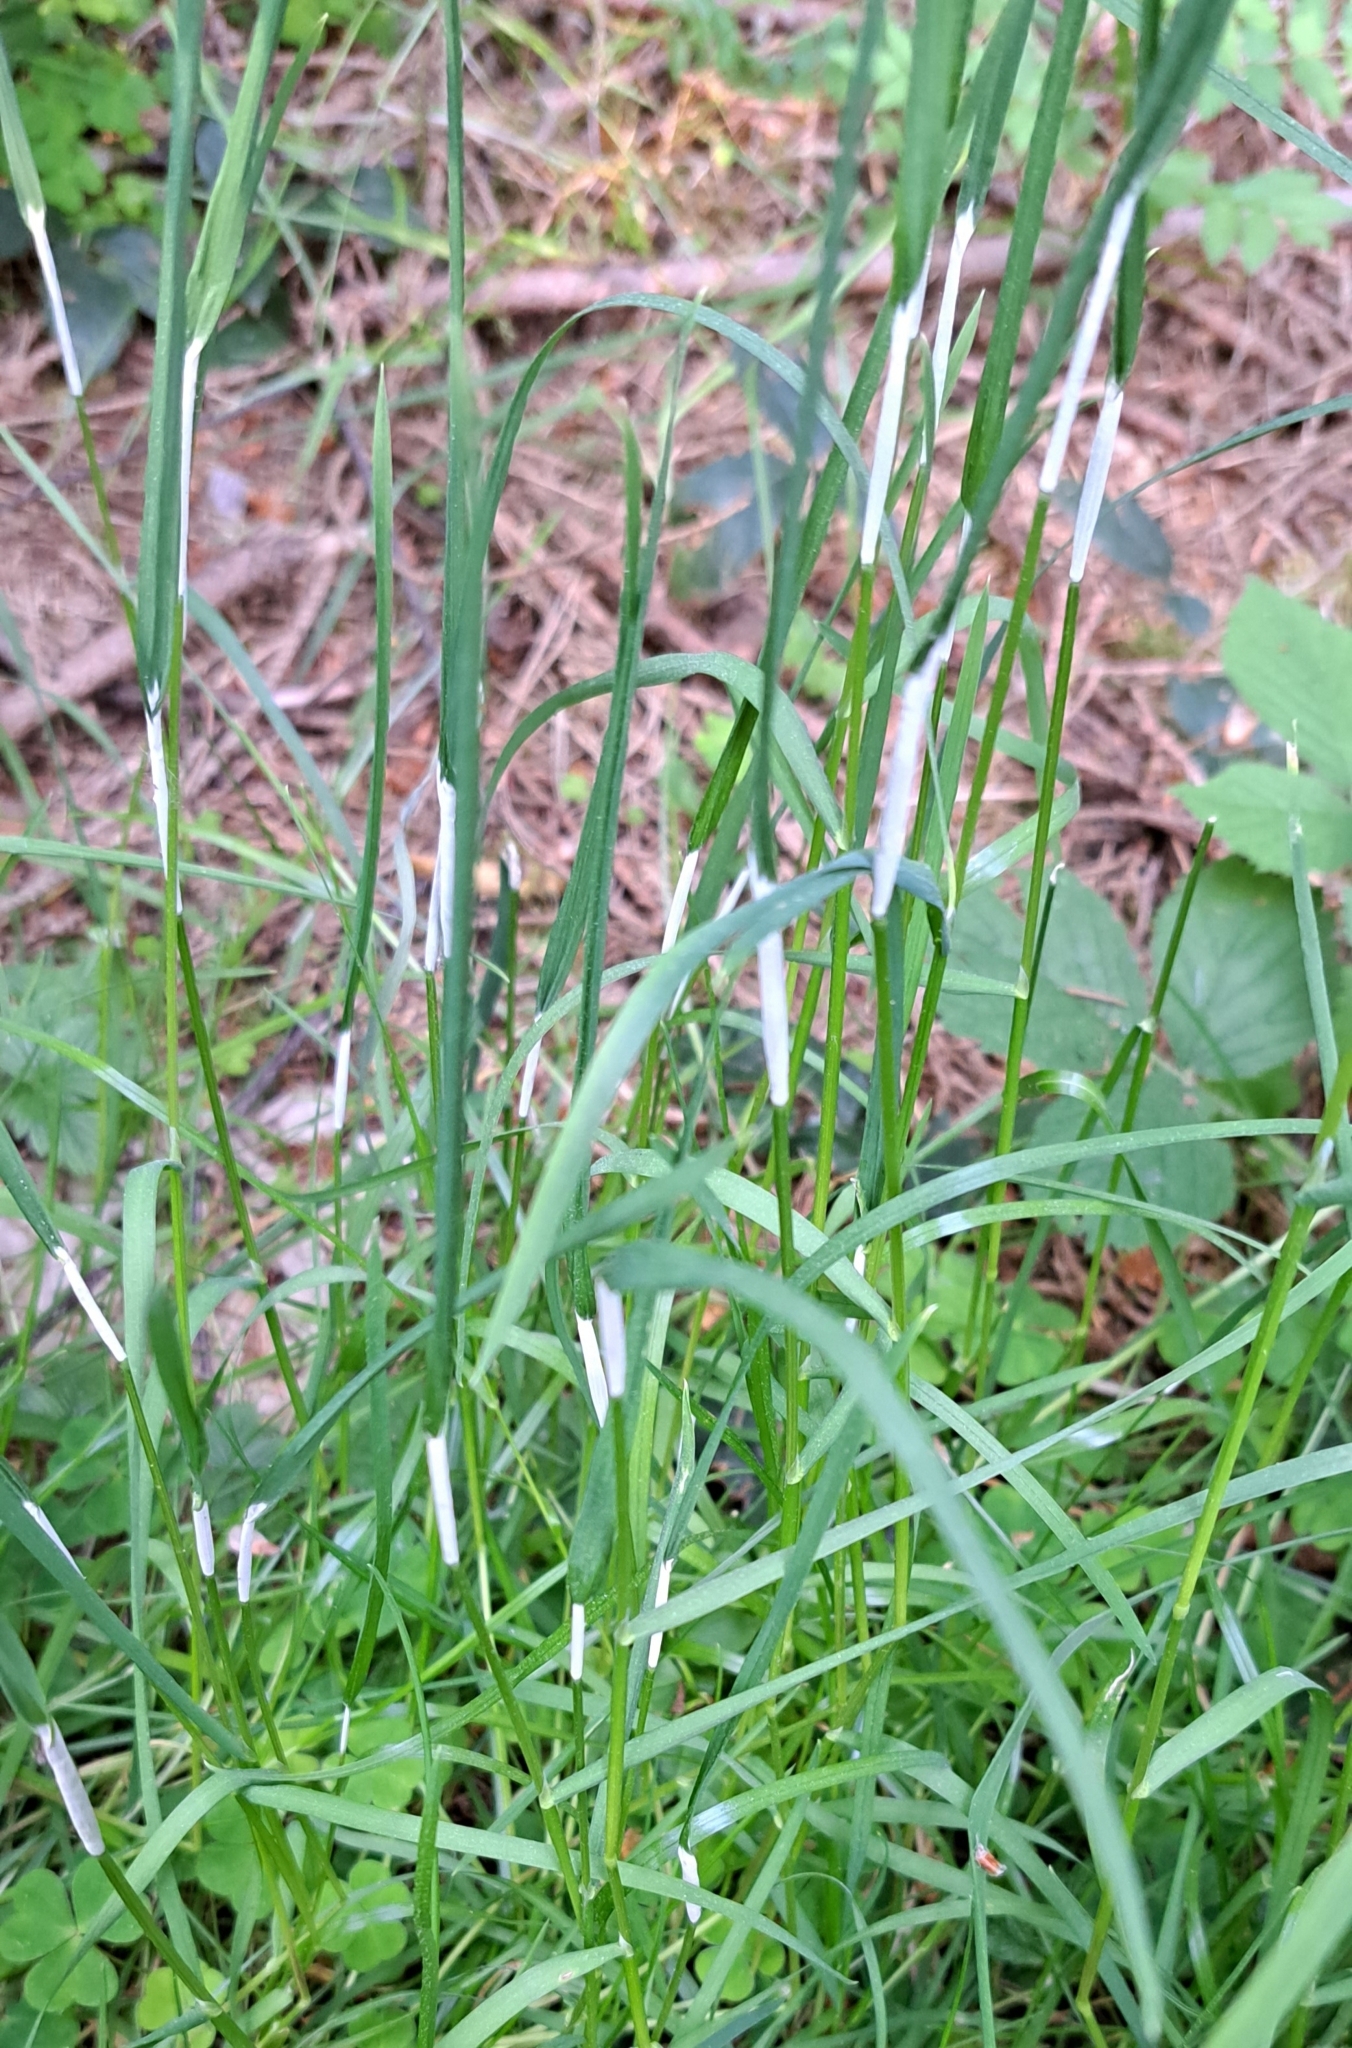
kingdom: Fungi
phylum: Ascomycota
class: Sordariomycetes
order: Hypocreales
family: Clavicipitaceae
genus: Epichloe
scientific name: Epichloe typhina
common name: Choke
